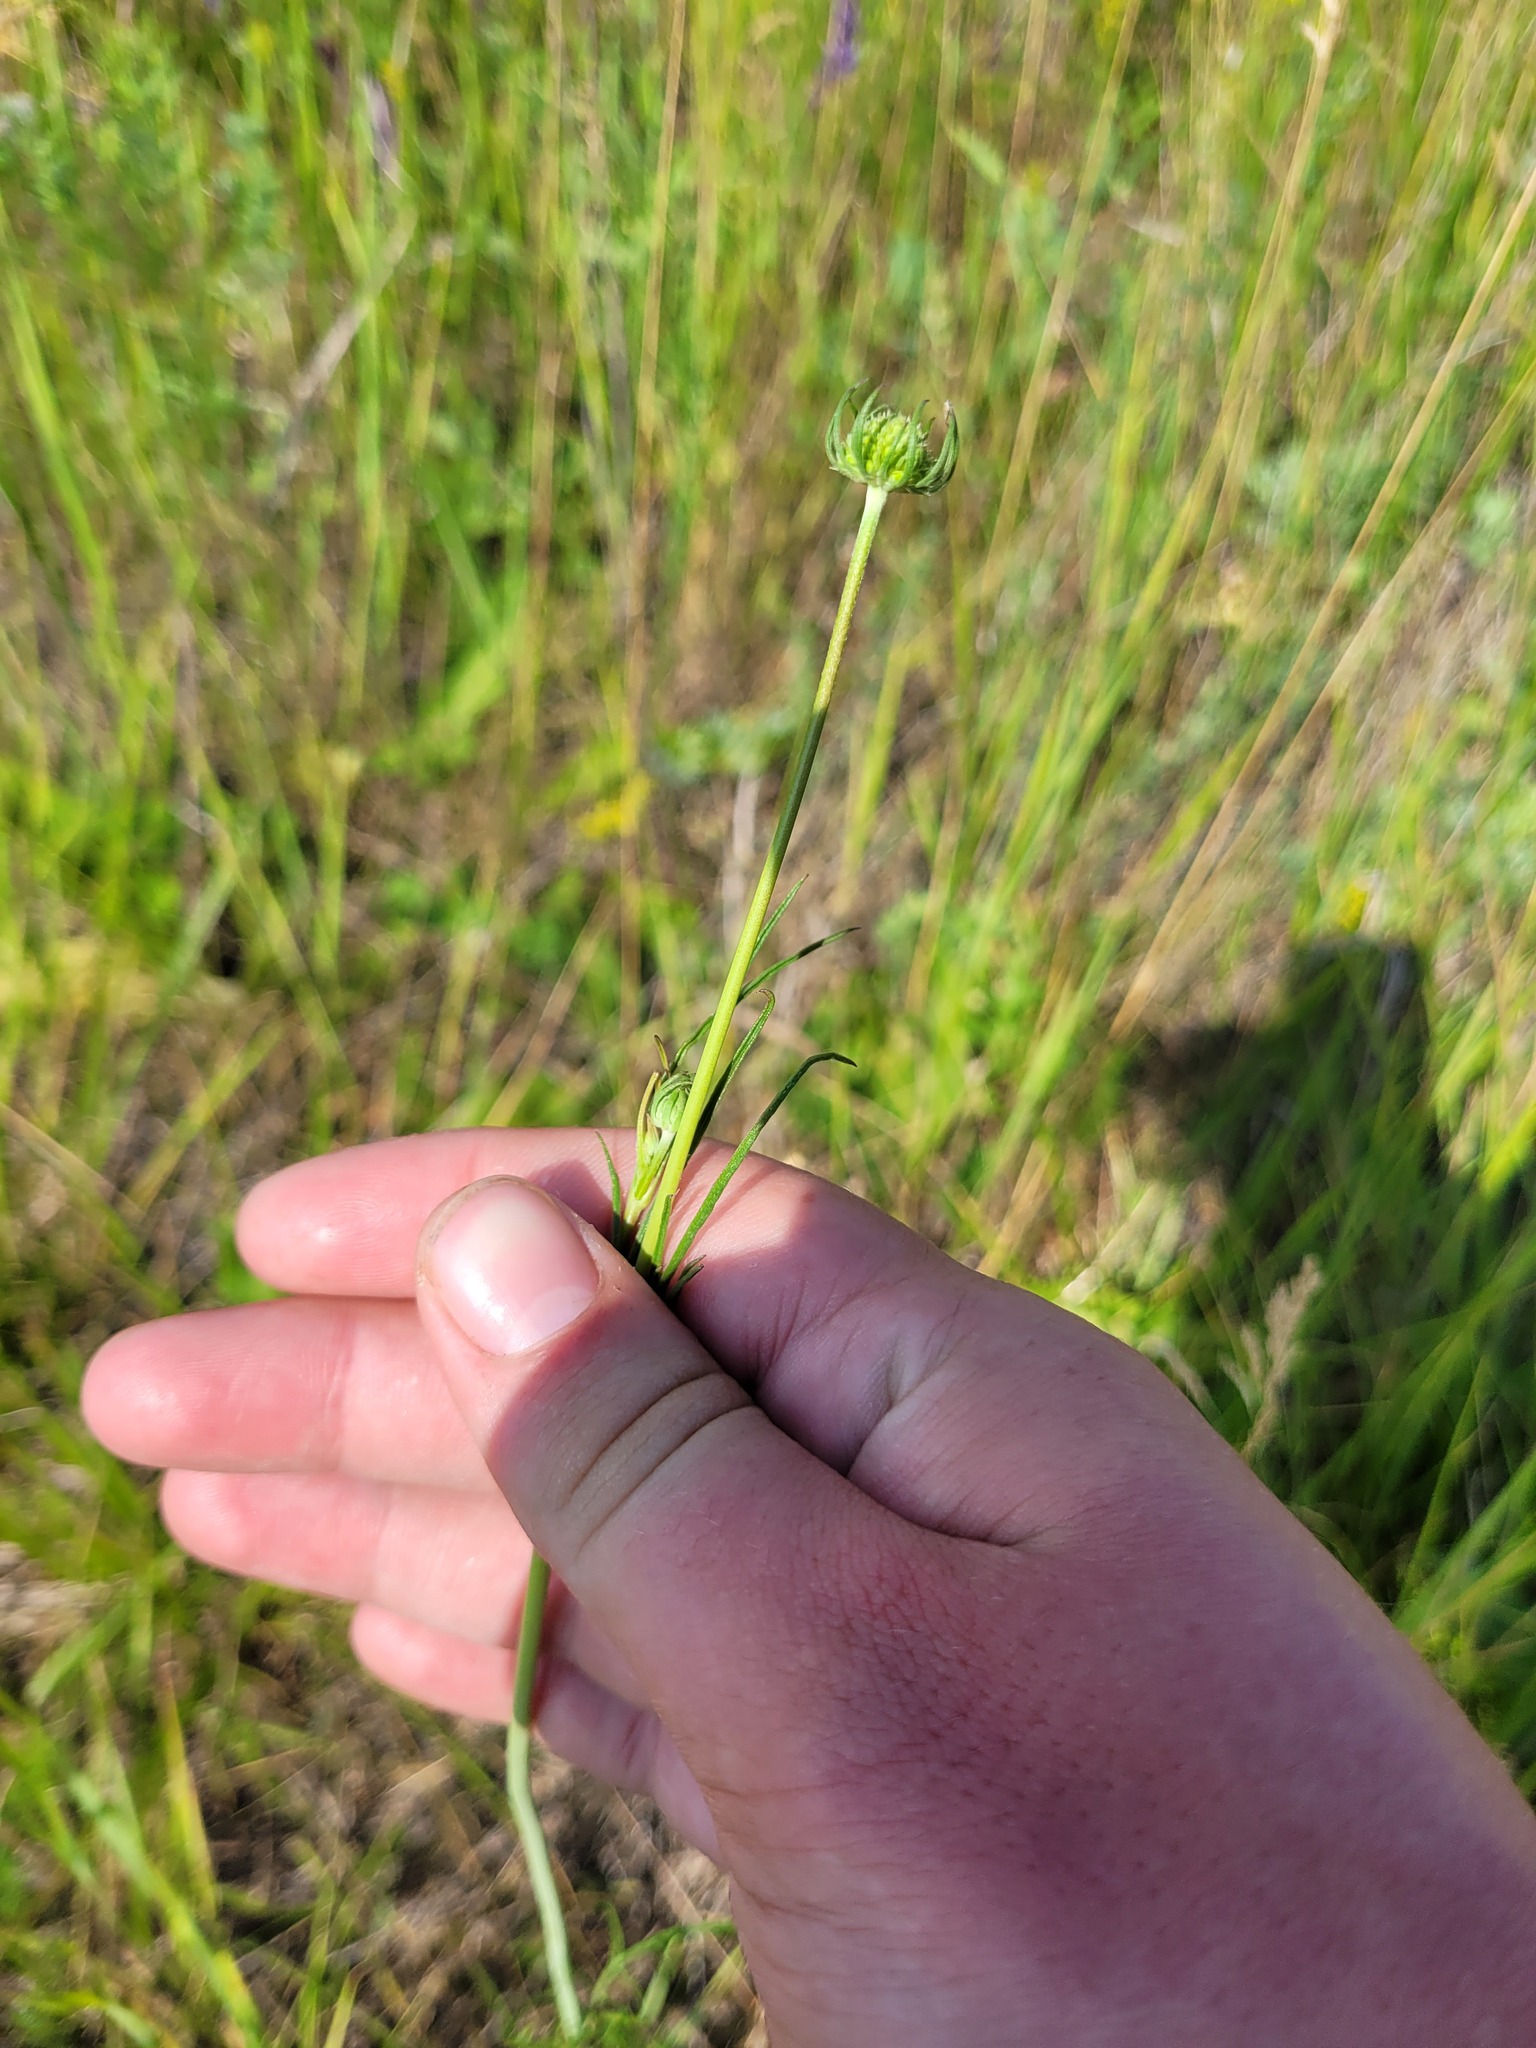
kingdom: Plantae
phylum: Tracheophyta
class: Magnoliopsida
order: Dipsacales
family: Caprifoliaceae
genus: Scabiosa
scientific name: Scabiosa ochroleuca
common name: Cream pincushions
